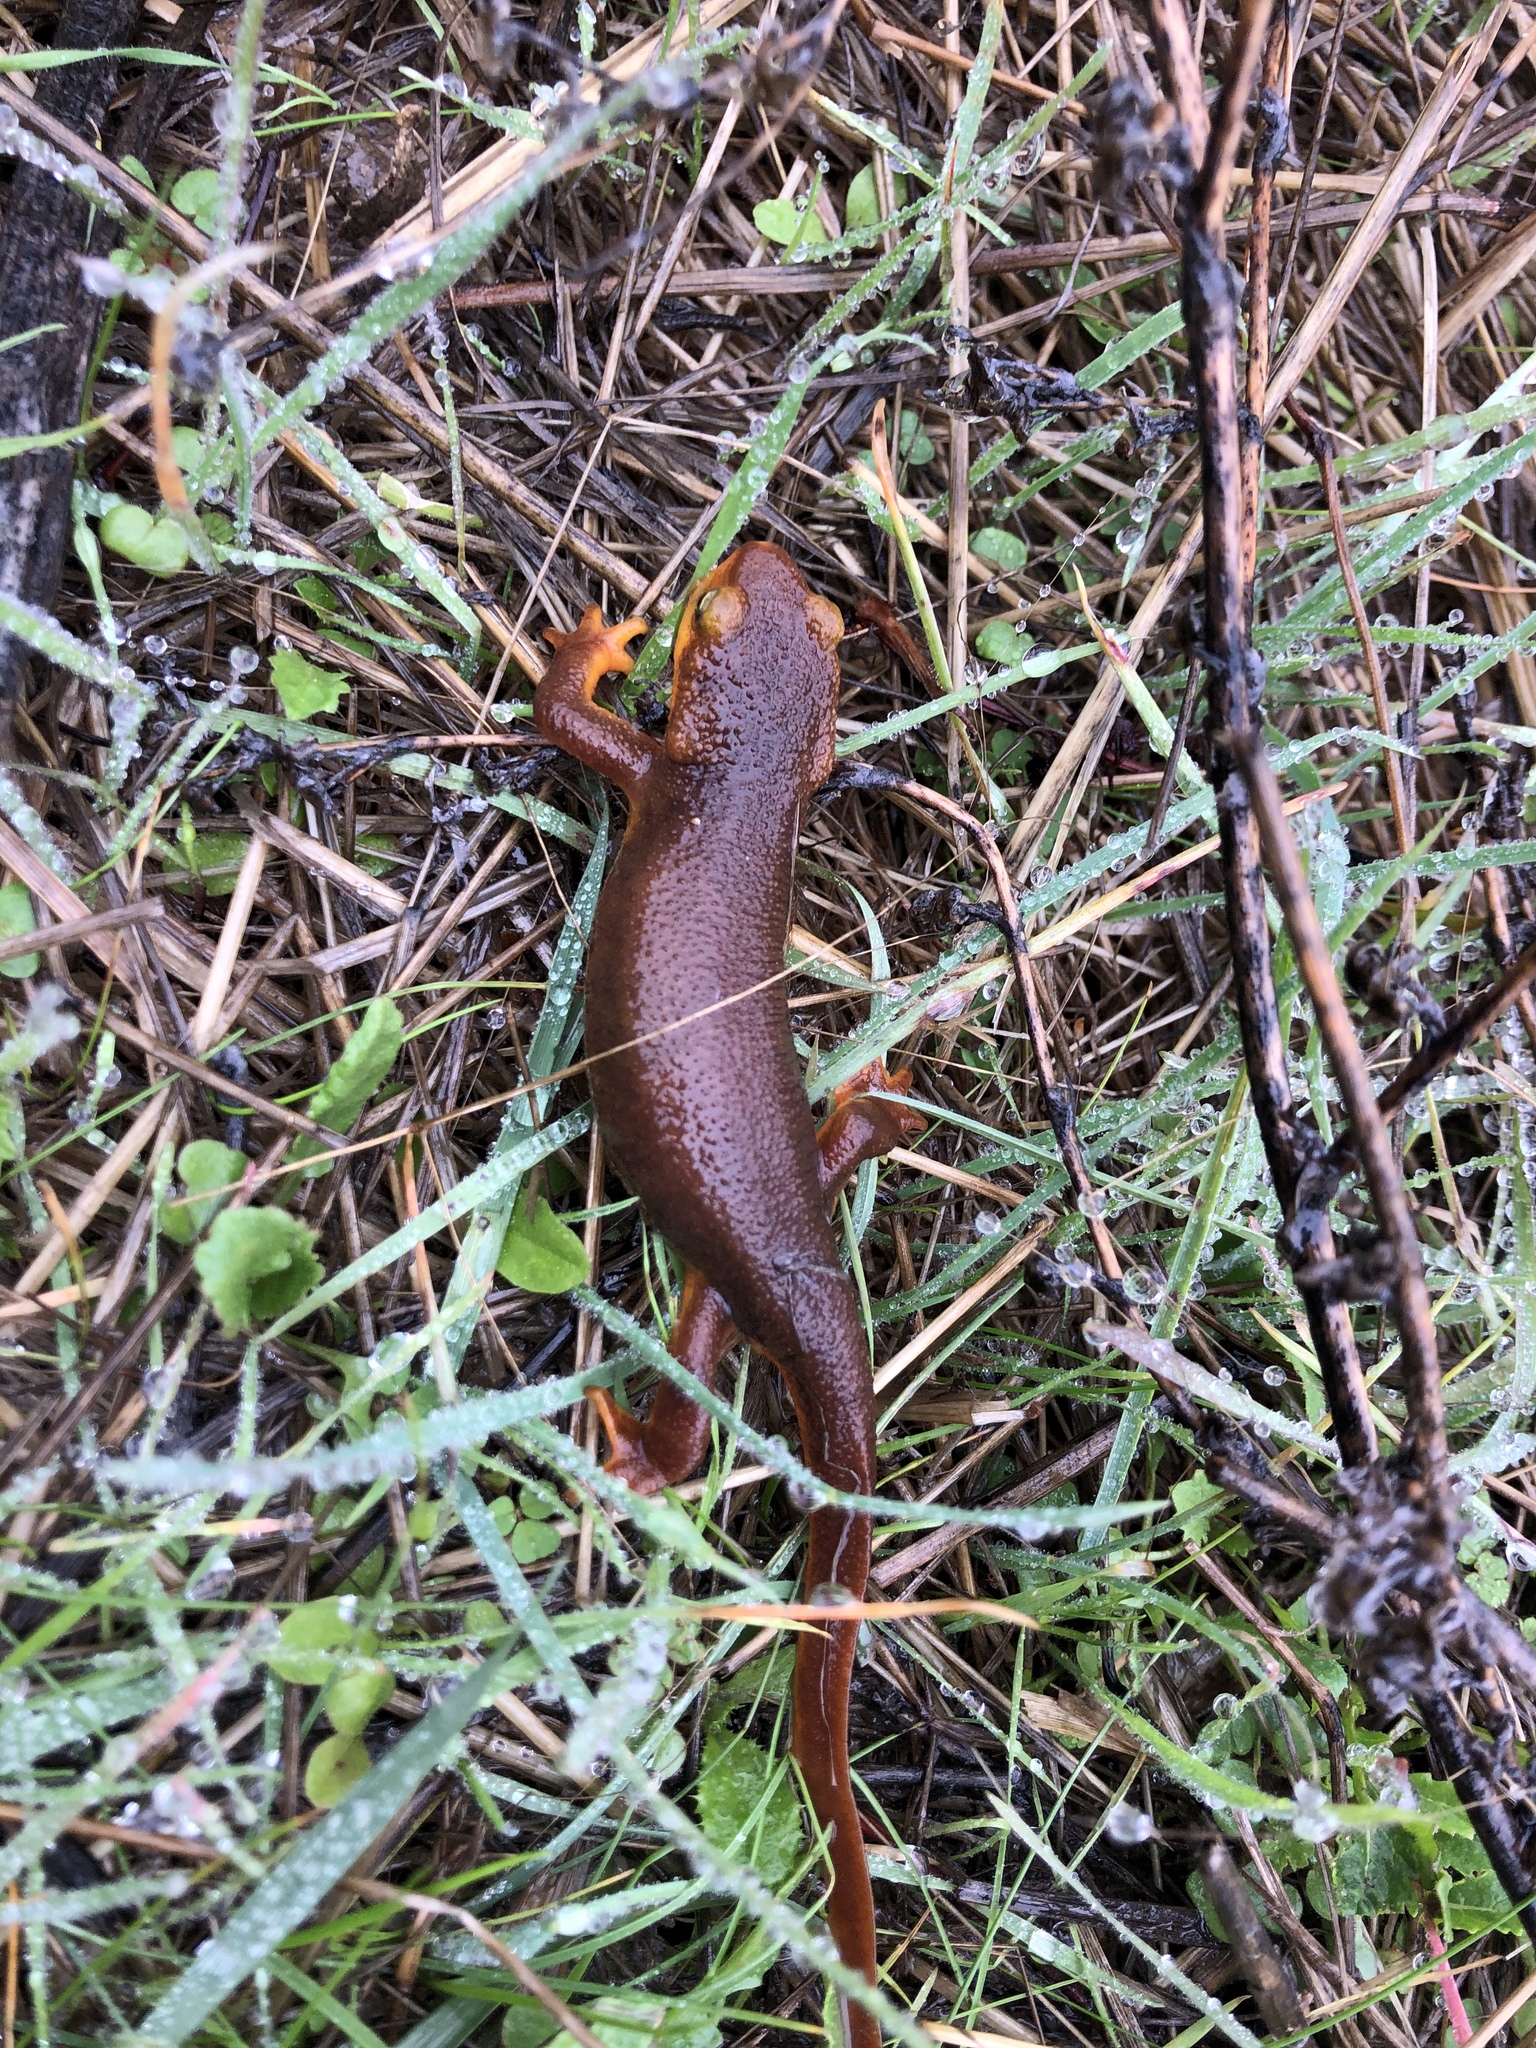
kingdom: Animalia
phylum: Chordata
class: Amphibia
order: Caudata
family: Salamandridae
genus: Taricha
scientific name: Taricha torosa
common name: California newt
